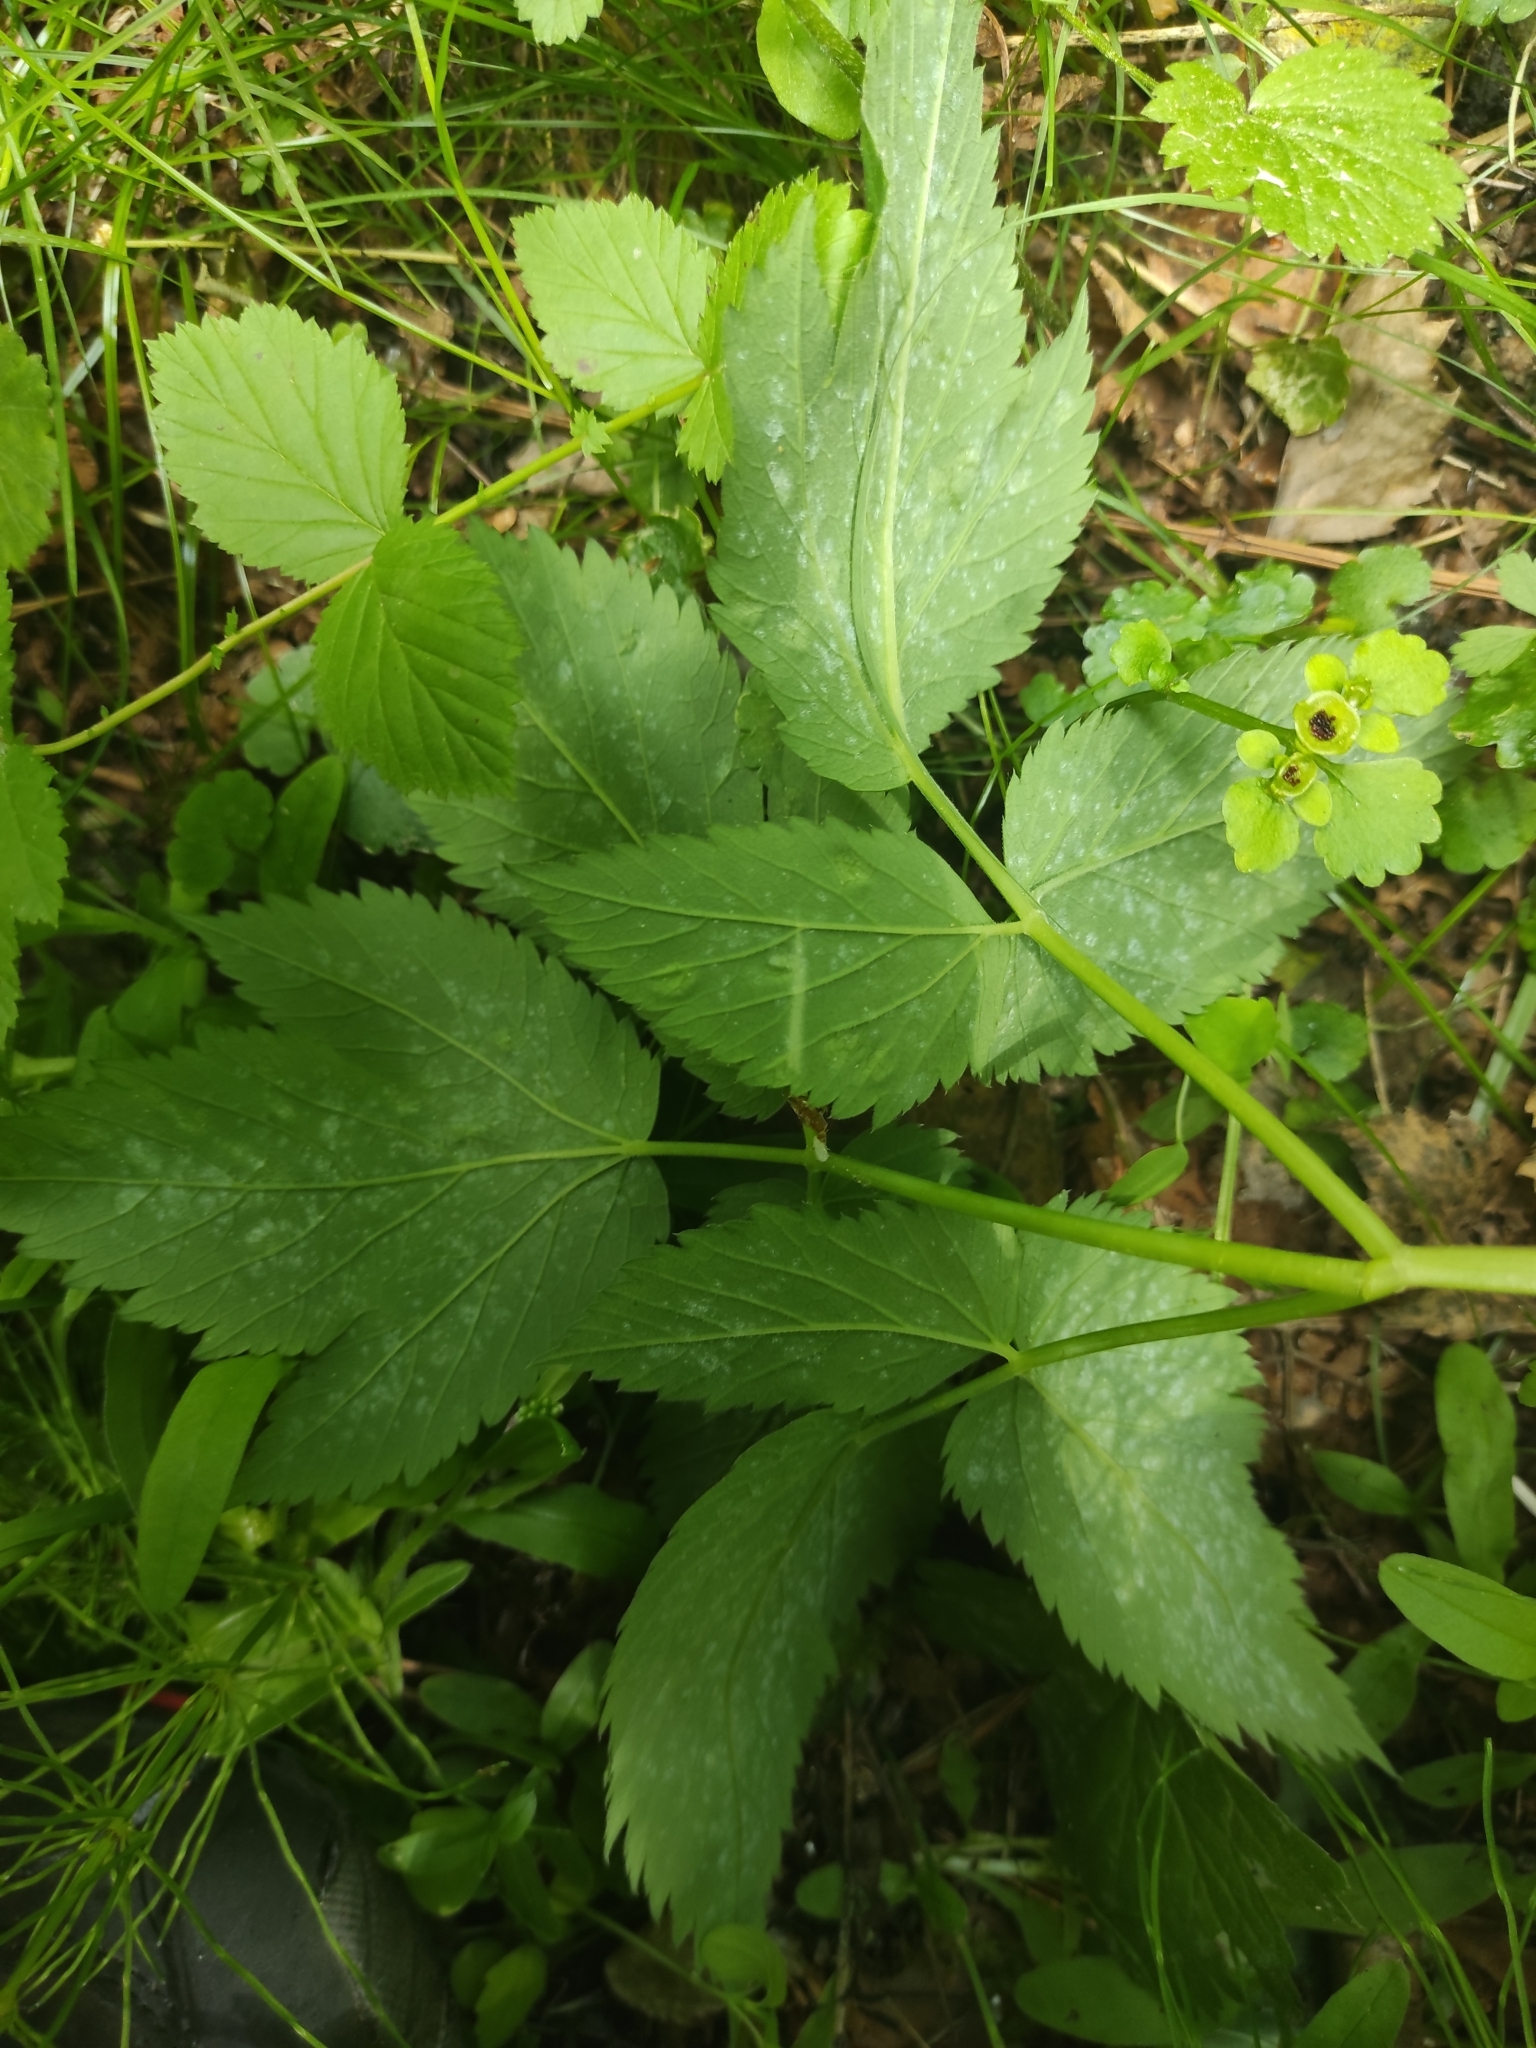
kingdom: Plantae
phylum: Tracheophyta
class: Magnoliopsida
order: Apiales
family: Apiaceae
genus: Aegopodium
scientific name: Aegopodium podagraria
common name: Ground-elder
